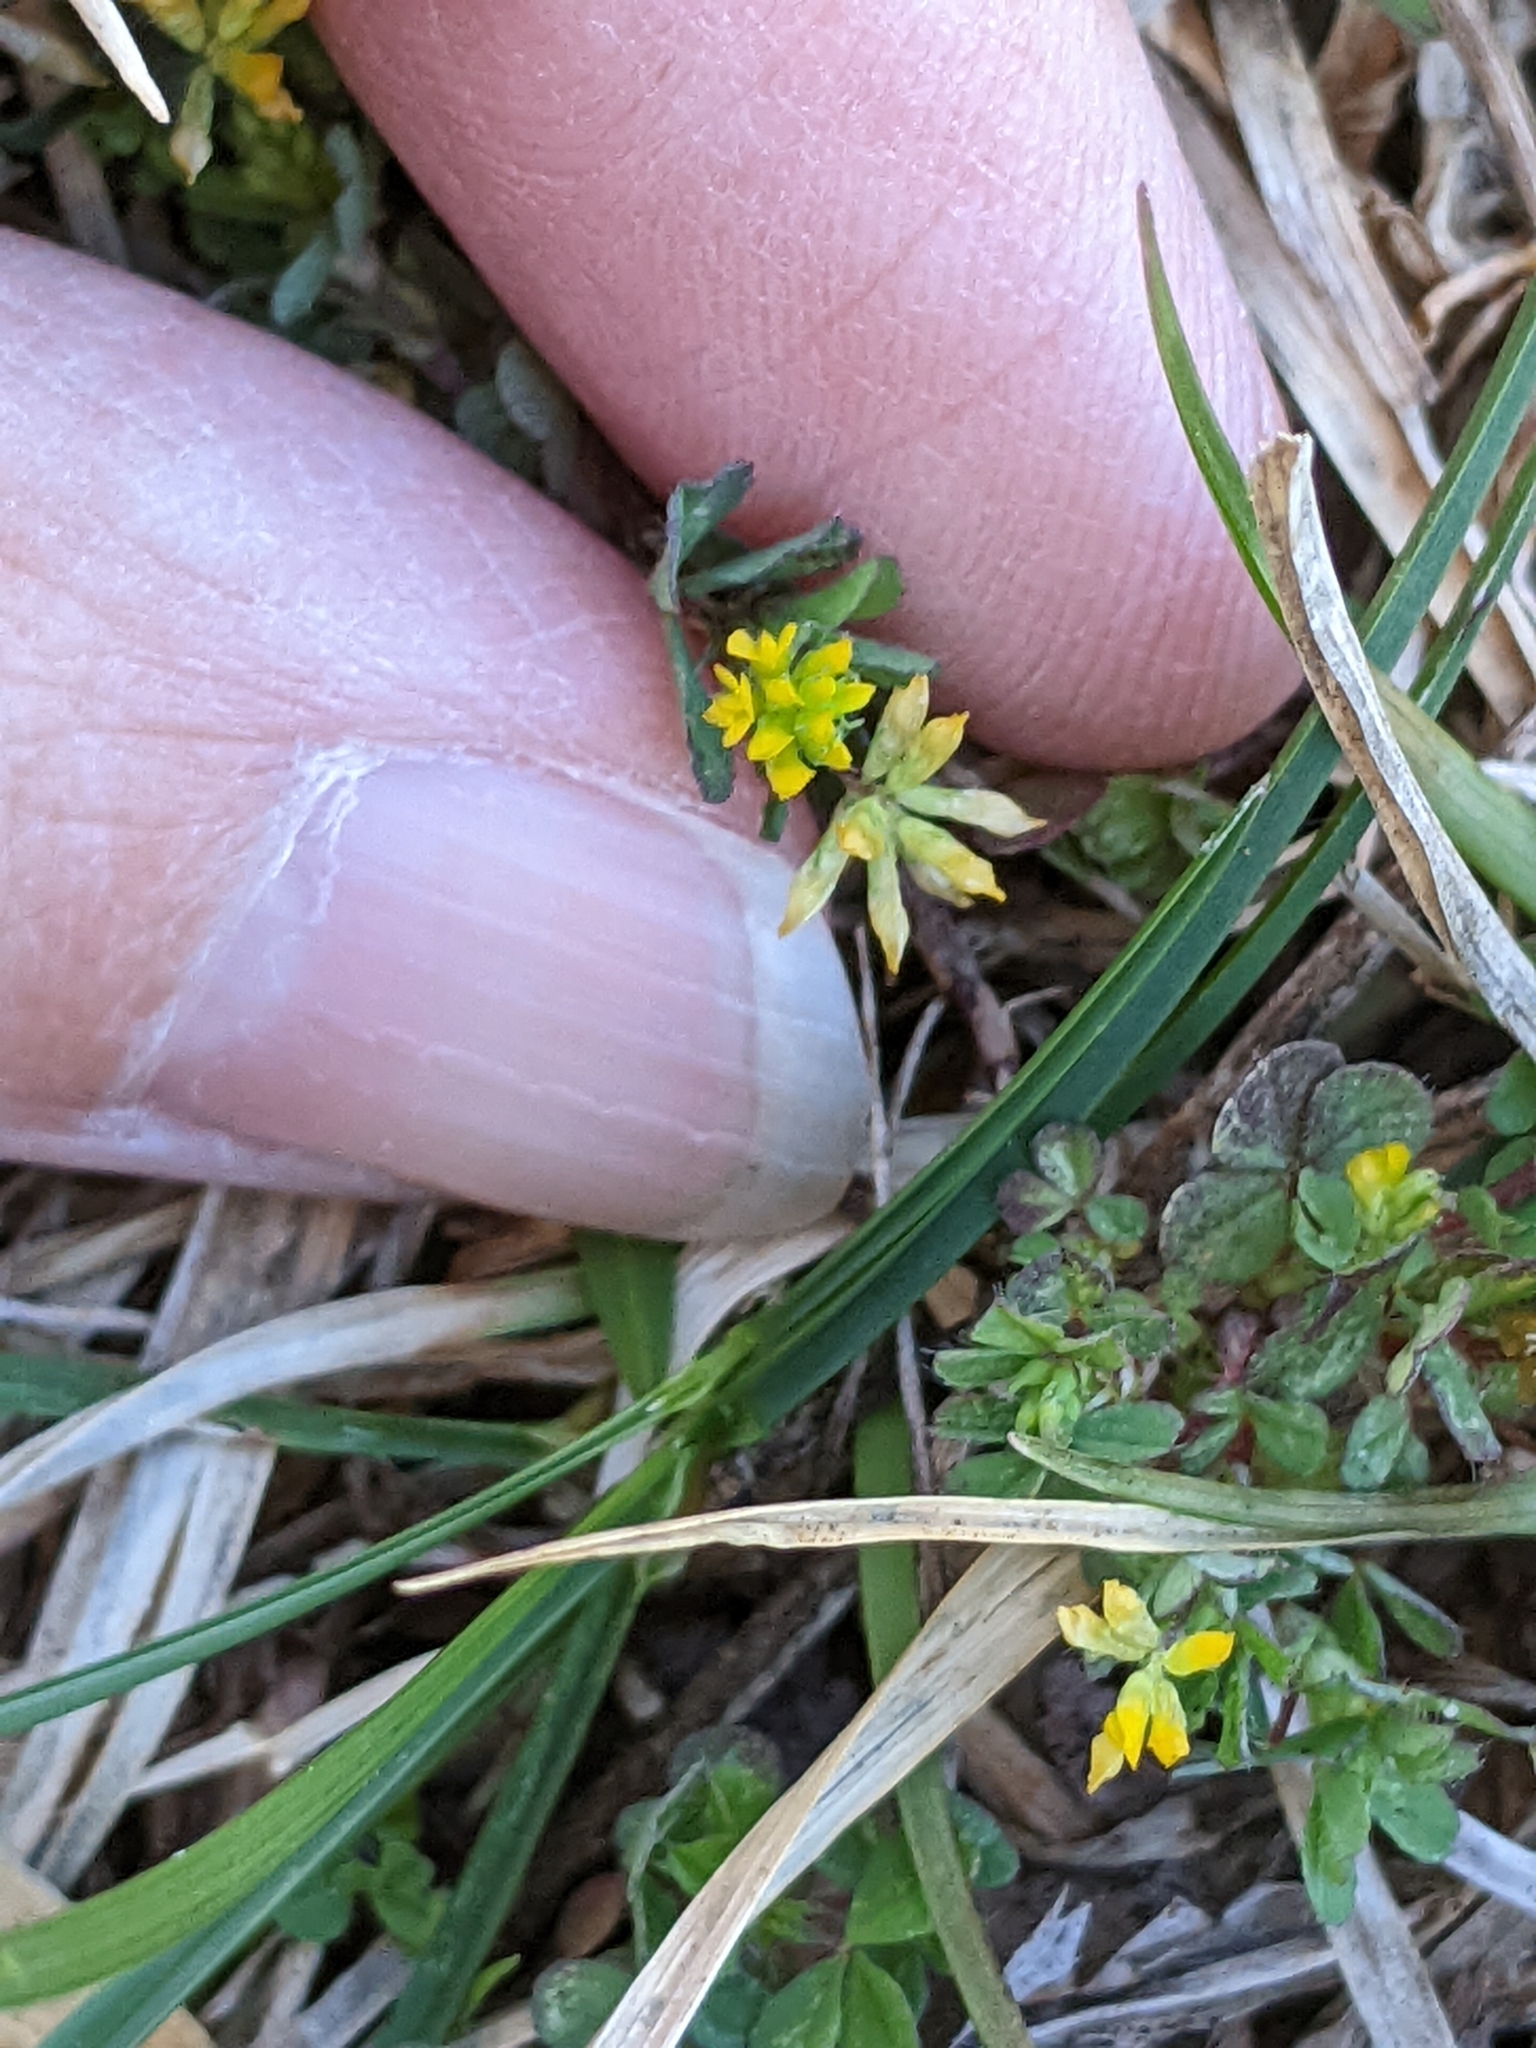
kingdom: Plantae
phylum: Tracheophyta
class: Magnoliopsida
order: Fabales
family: Fabaceae
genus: Trifolium
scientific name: Trifolium dubium
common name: Suckling clover
